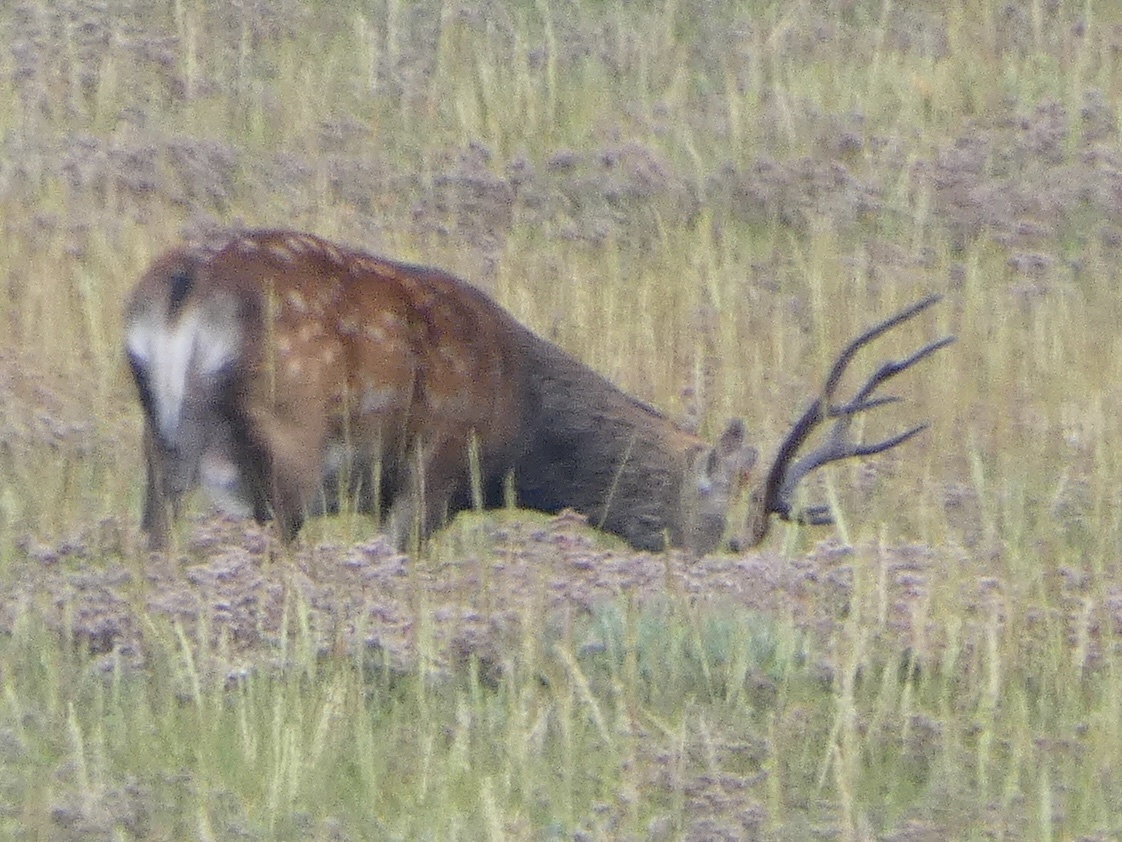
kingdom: Animalia
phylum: Chordata
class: Mammalia
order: Artiodactyla
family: Cervidae
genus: Cervus
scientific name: Cervus nippon
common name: Sika deer
